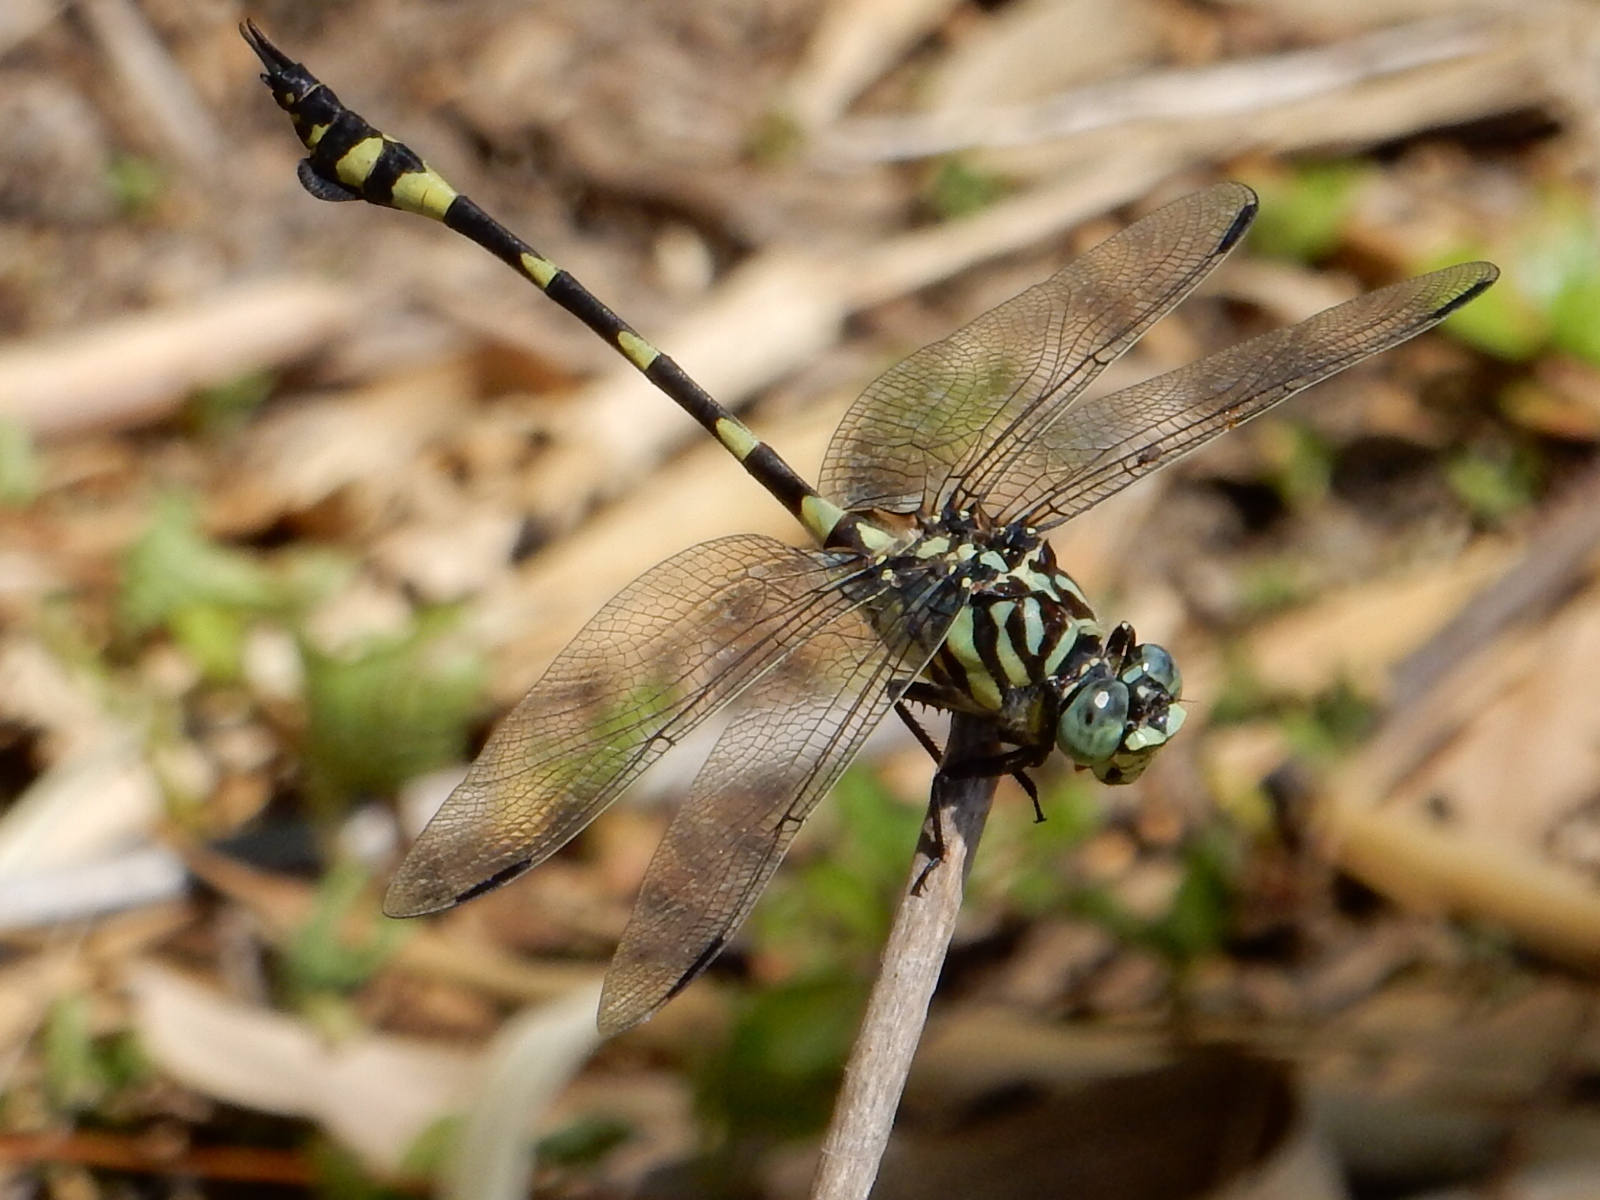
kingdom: Animalia
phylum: Arthropoda
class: Insecta
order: Odonata
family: Gomphidae
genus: Ictinogomphus
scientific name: Ictinogomphus australis
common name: Australian tiger
